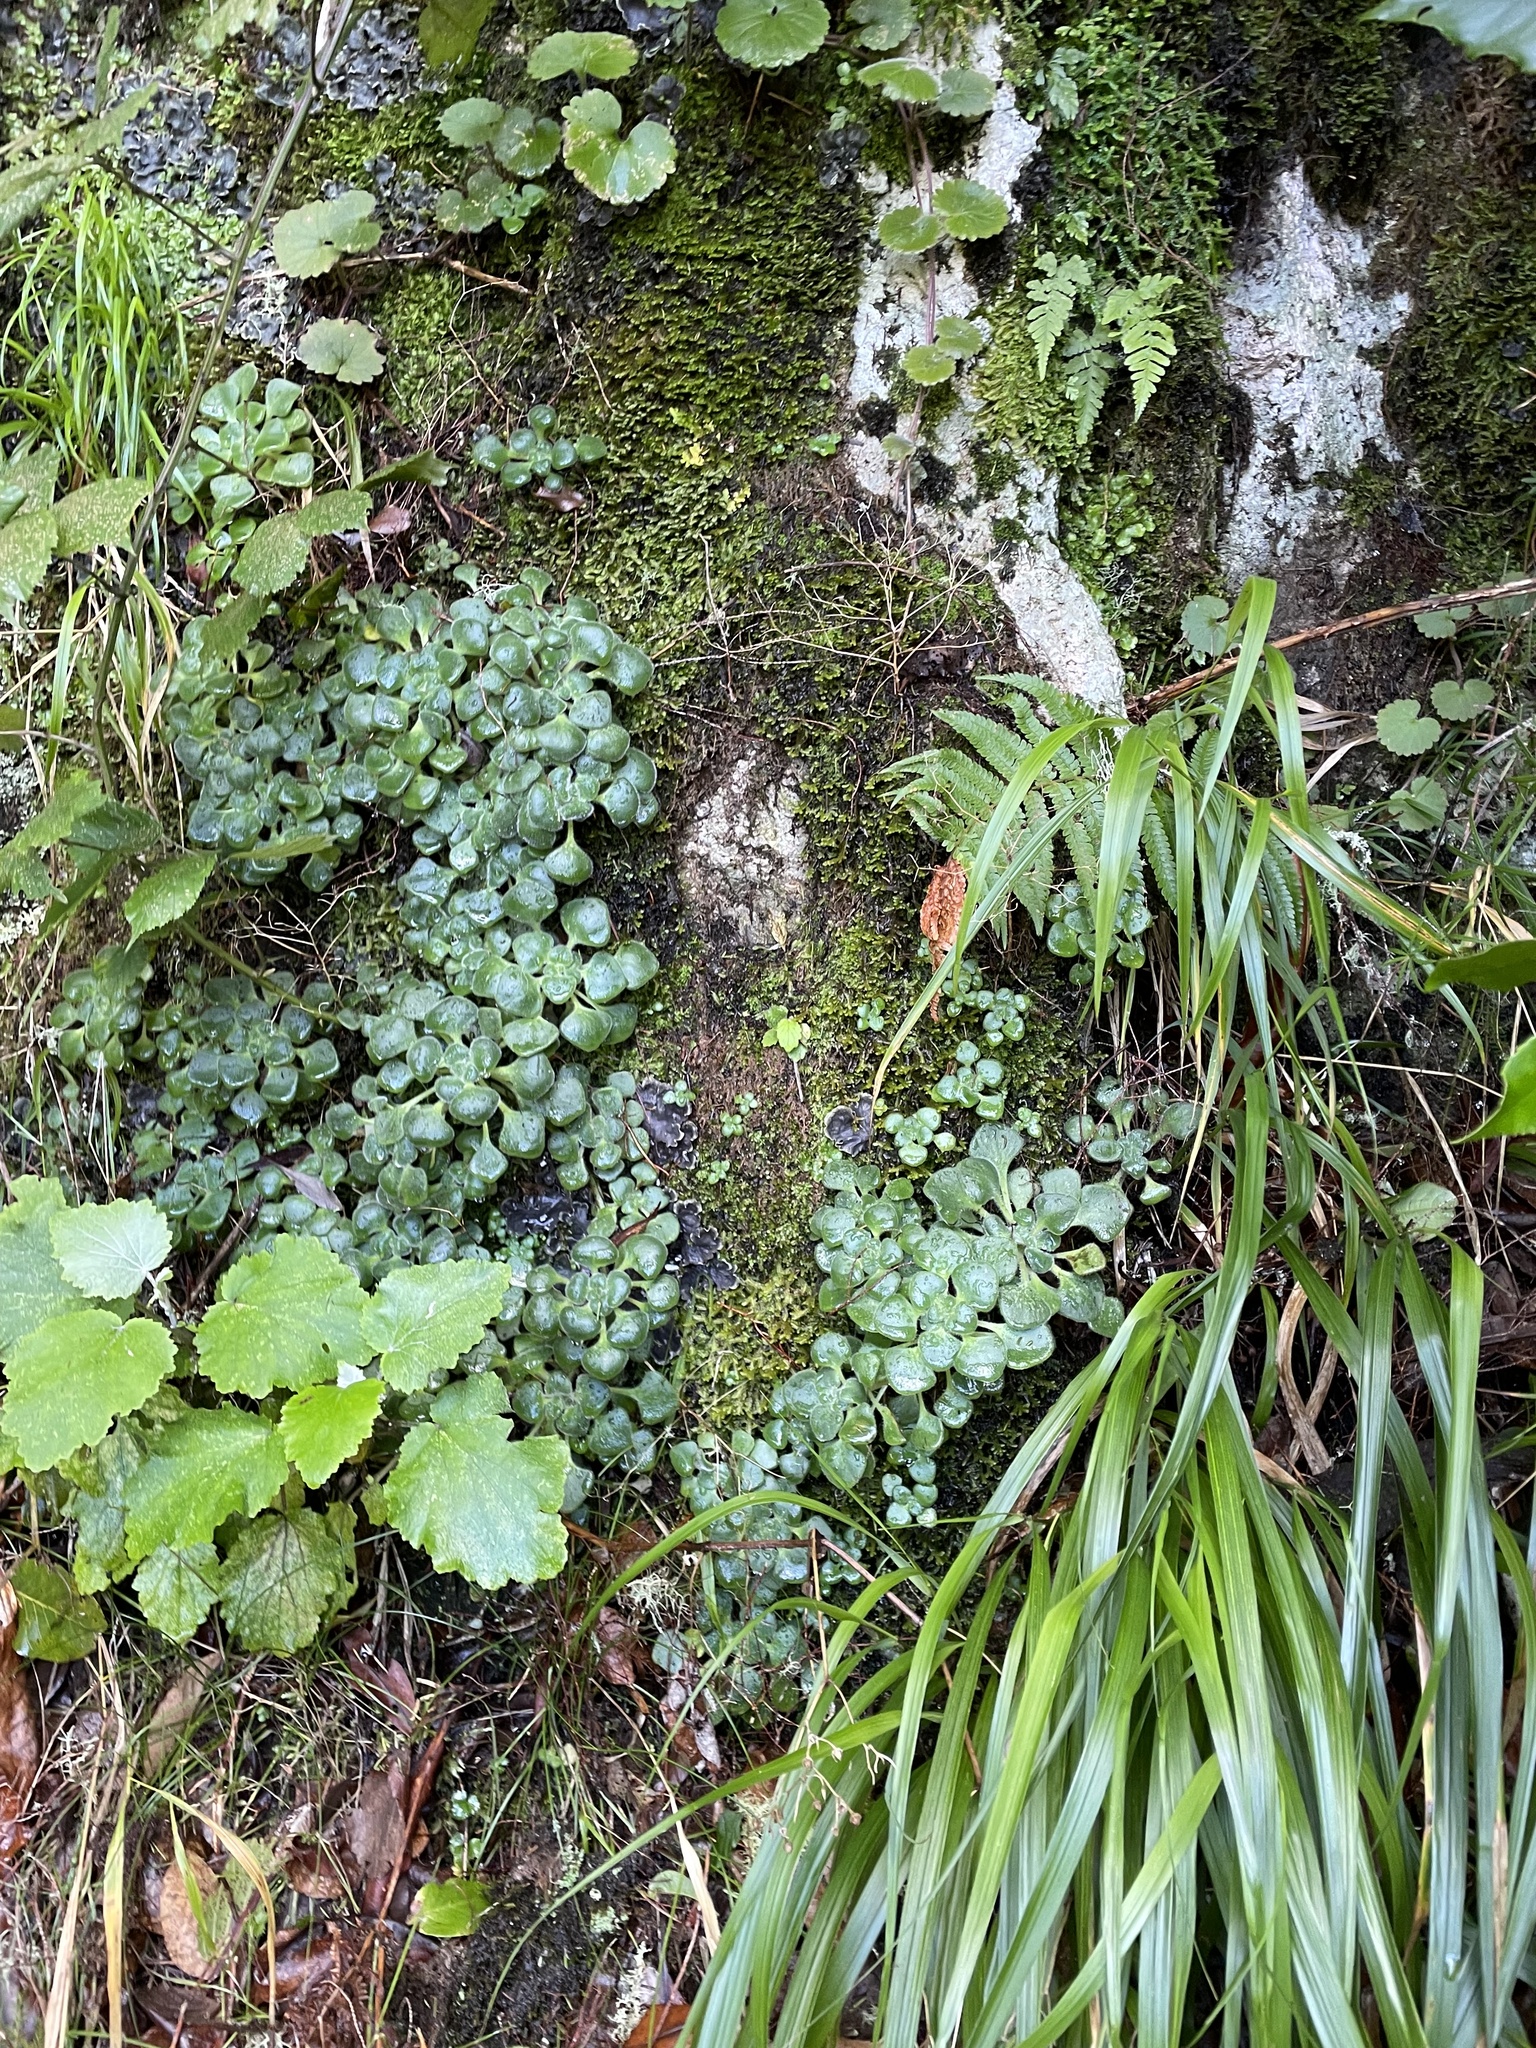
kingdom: Plantae
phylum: Tracheophyta
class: Magnoliopsida
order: Saxifragales
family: Crassulaceae
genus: Aichryson
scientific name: Aichryson divaricatum
